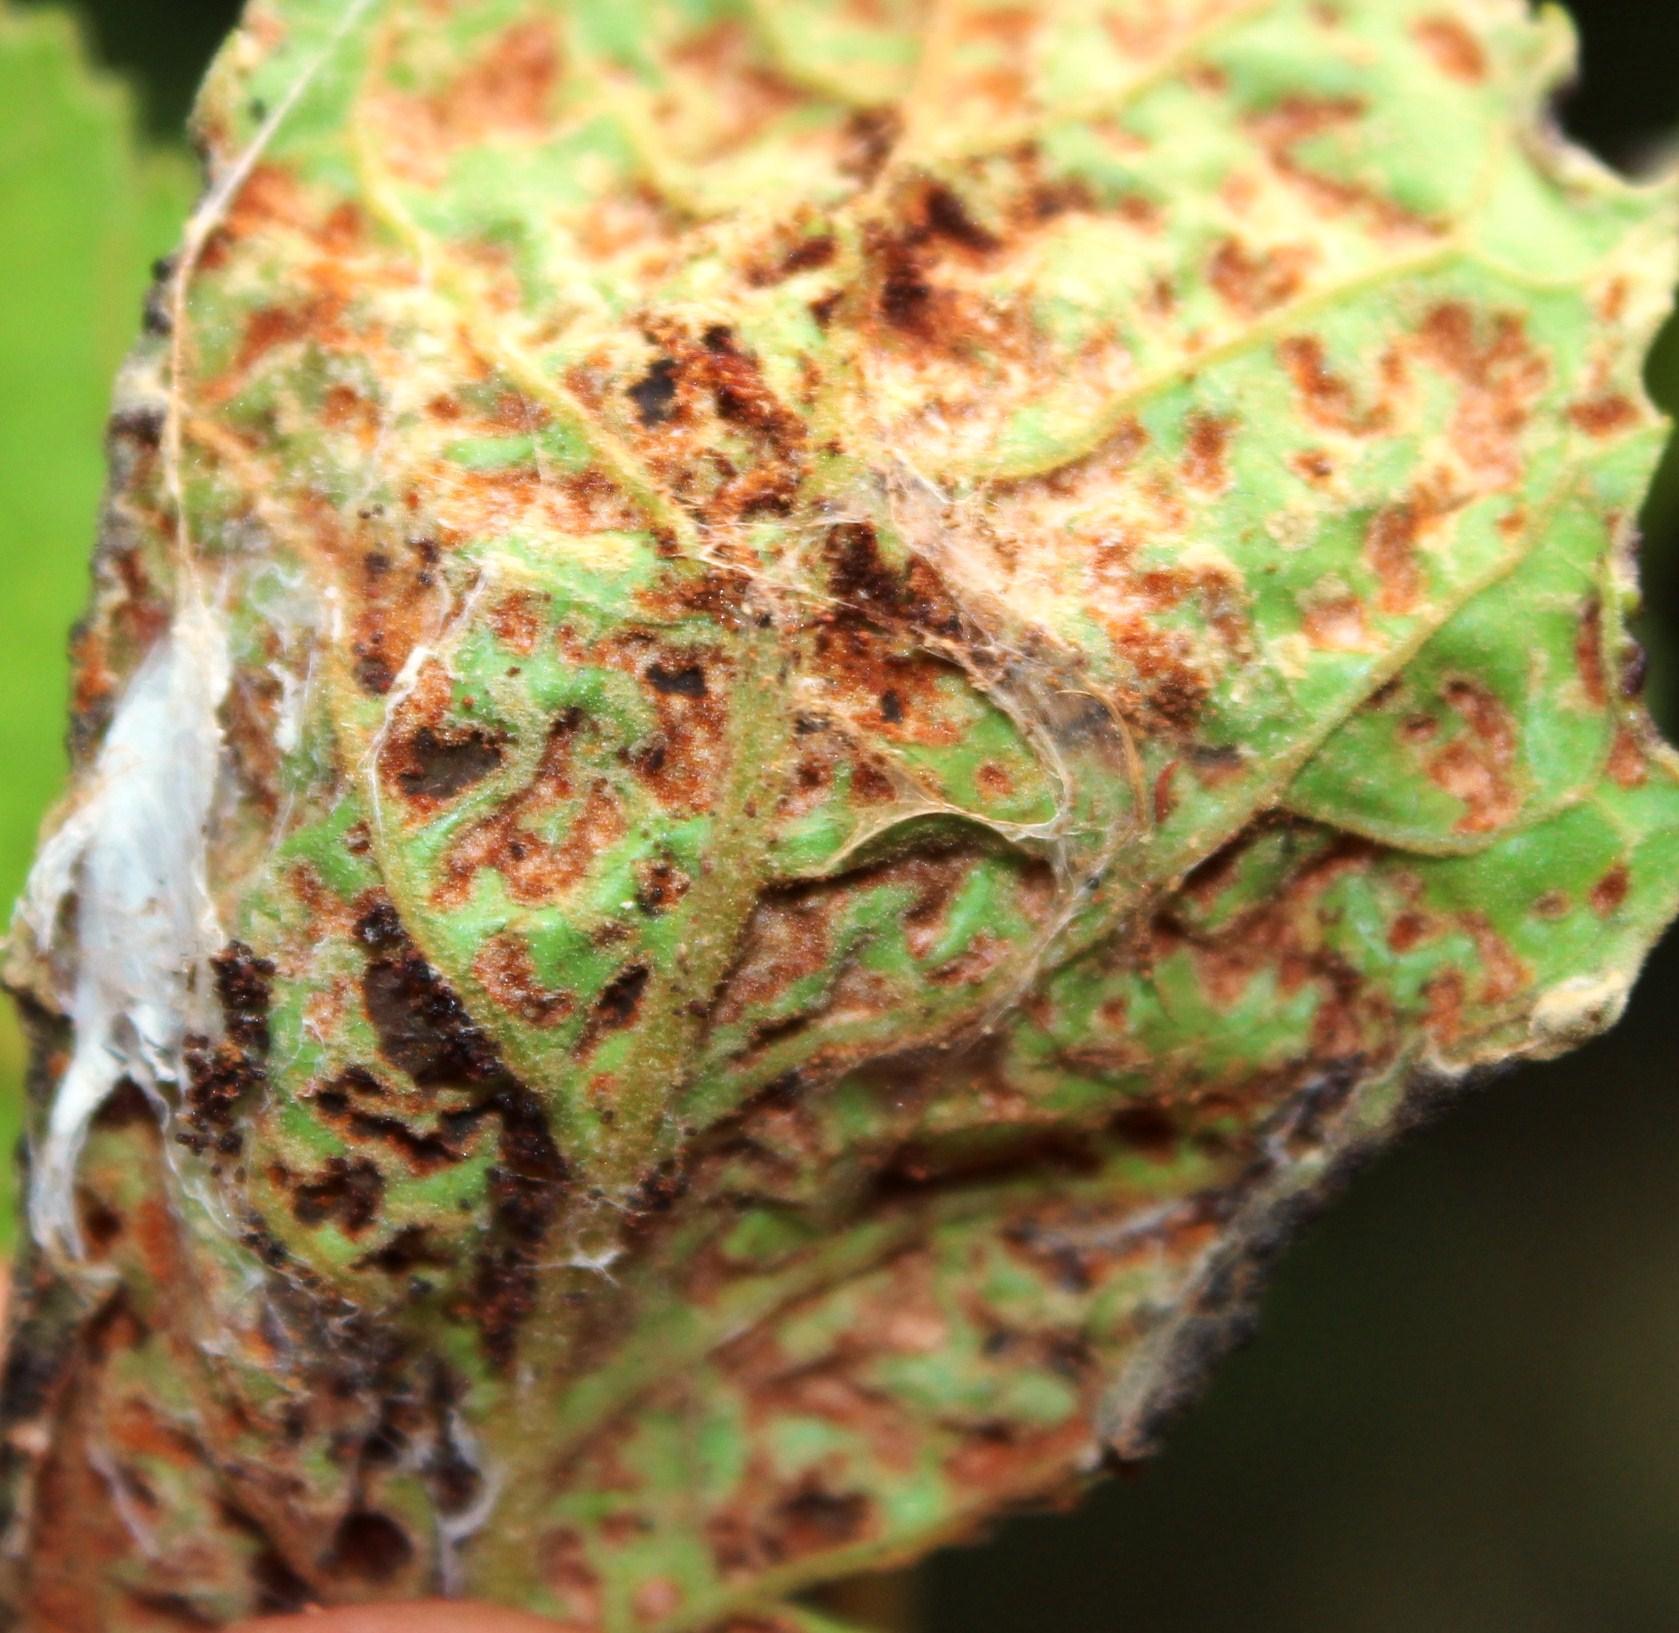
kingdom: Animalia
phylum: Arthropoda
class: Arachnida
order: Trombidiformes
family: Phytoptidae
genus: Phytoptus
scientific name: Phytoptus
